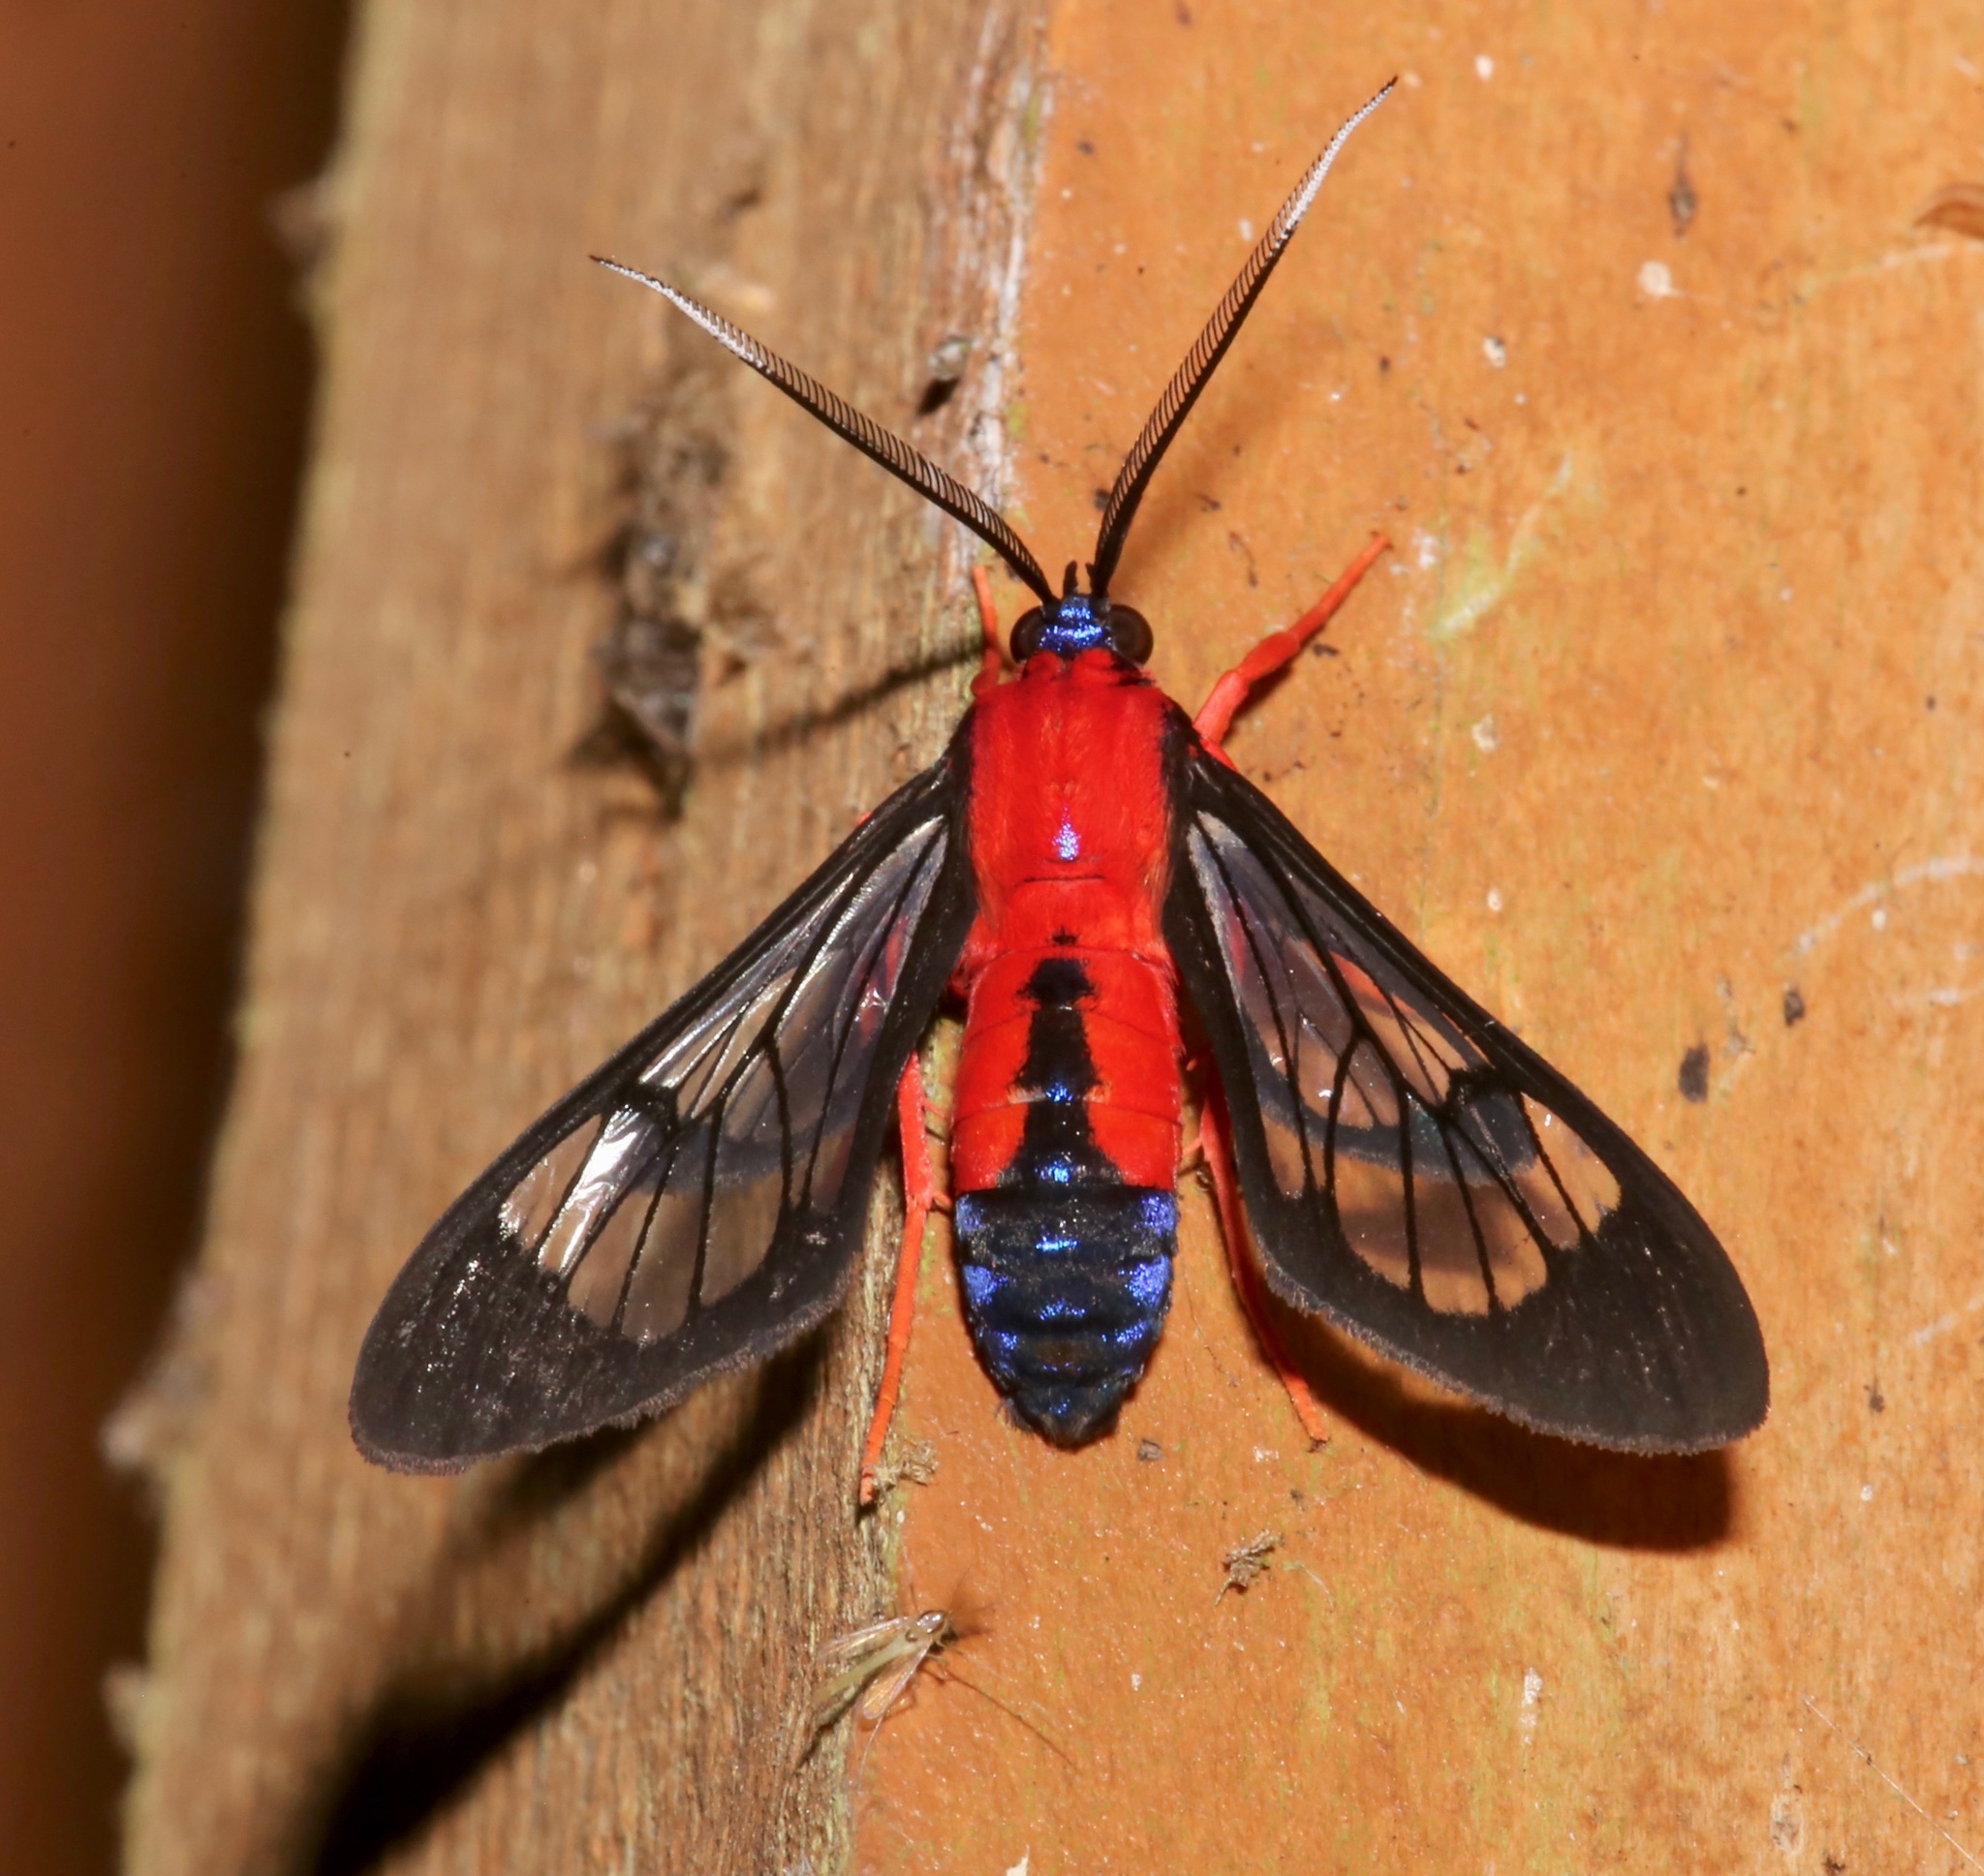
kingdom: Animalia
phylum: Arthropoda
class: Insecta
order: Lepidoptera
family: Erebidae
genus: Cosmosoma
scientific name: Cosmosoma myrodora
